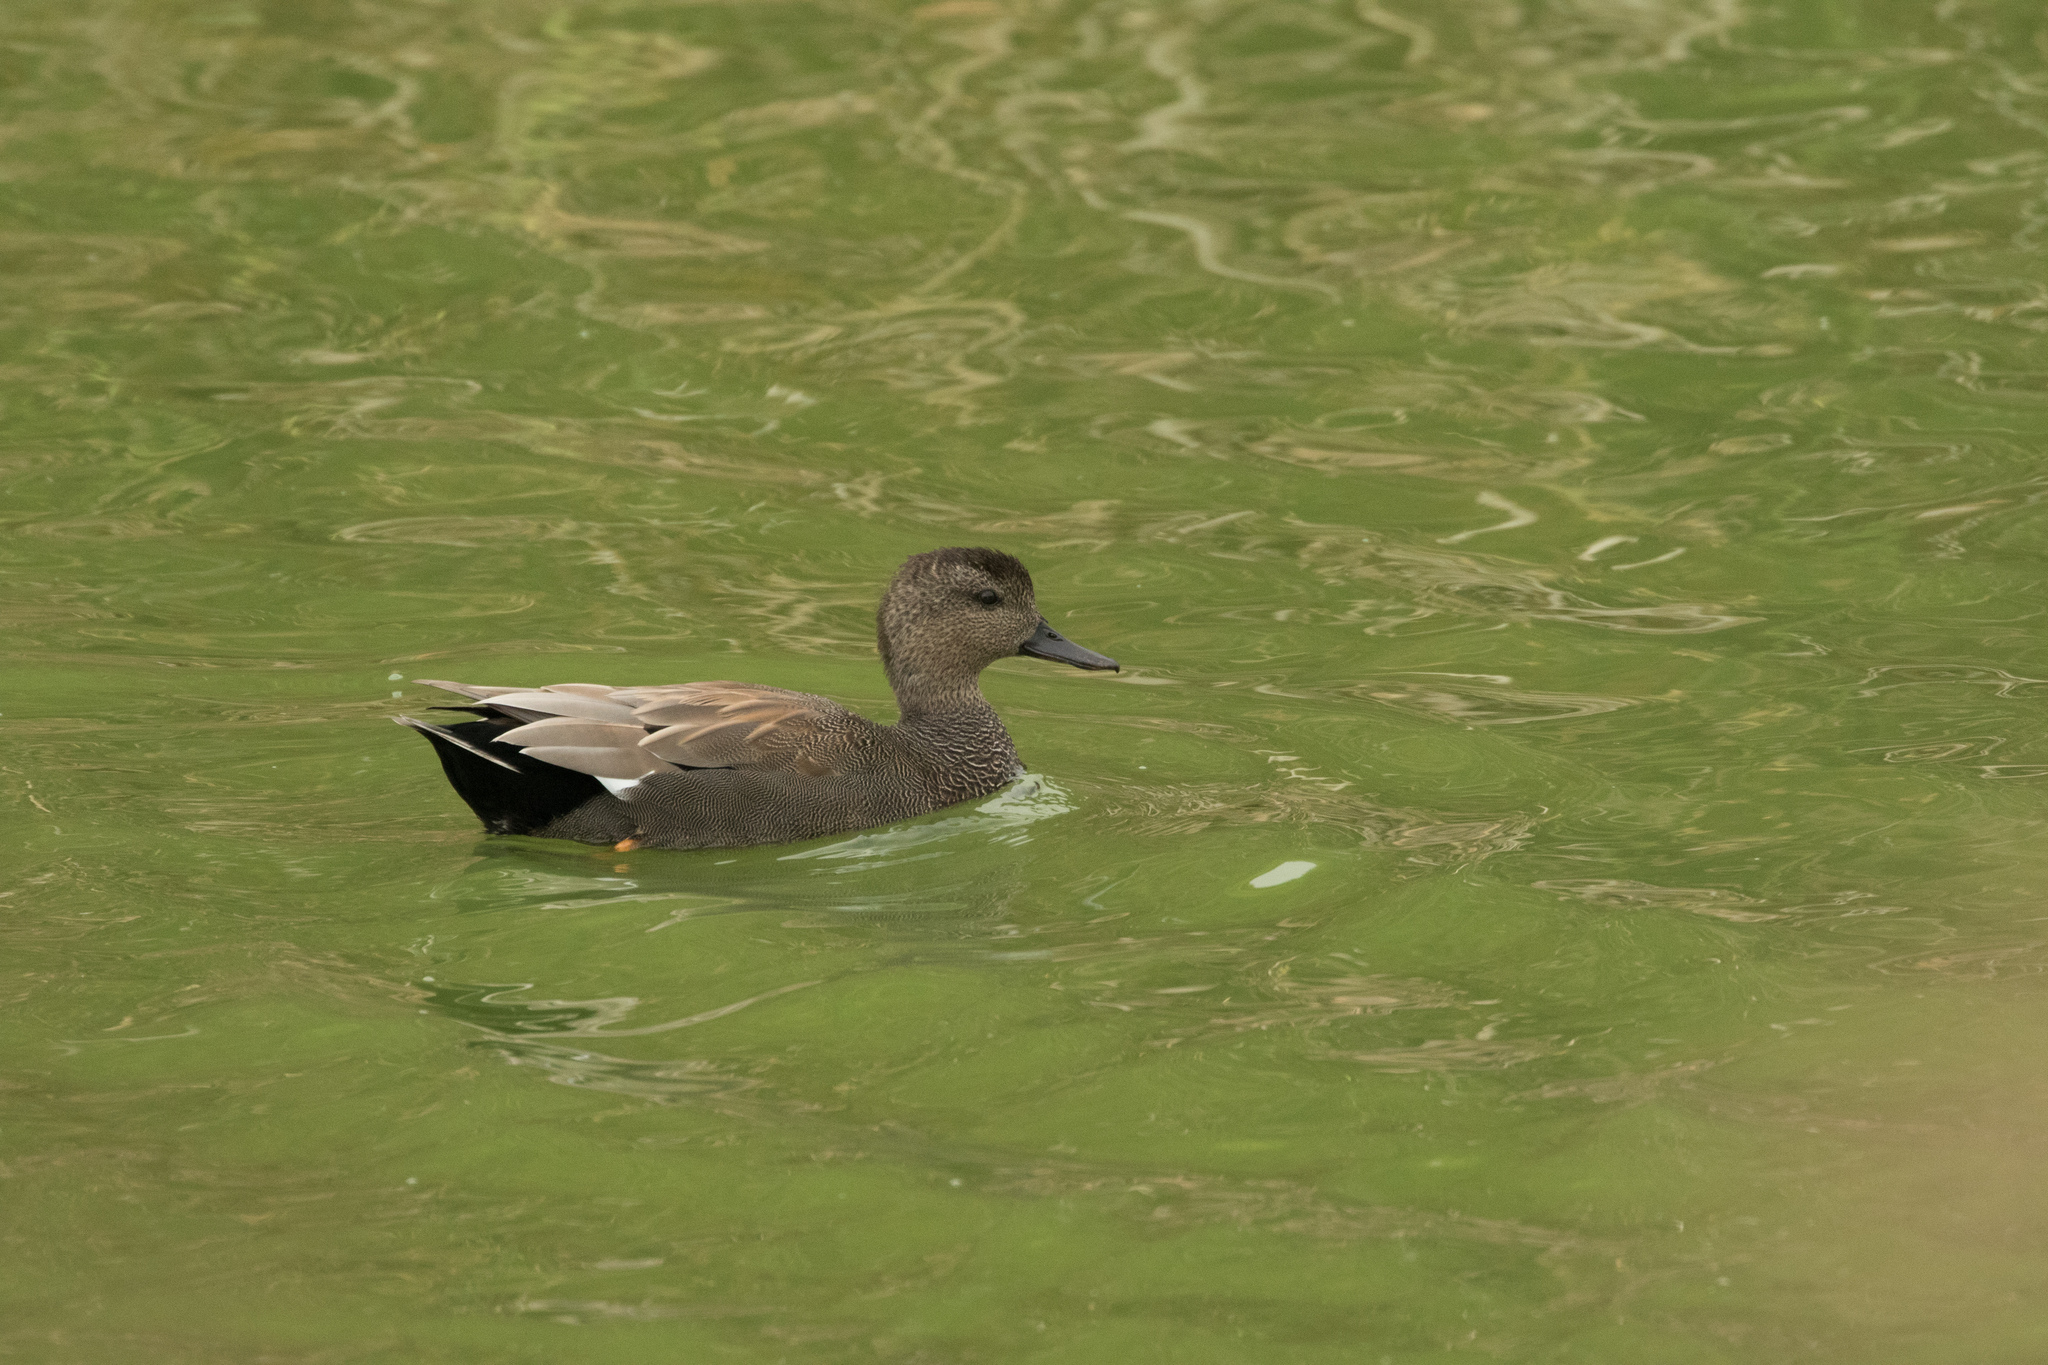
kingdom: Animalia
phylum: Chordata
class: Aves
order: Anseriformes
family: Anatidae
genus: Mareca
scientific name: Mareca strepera
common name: Gadwall
